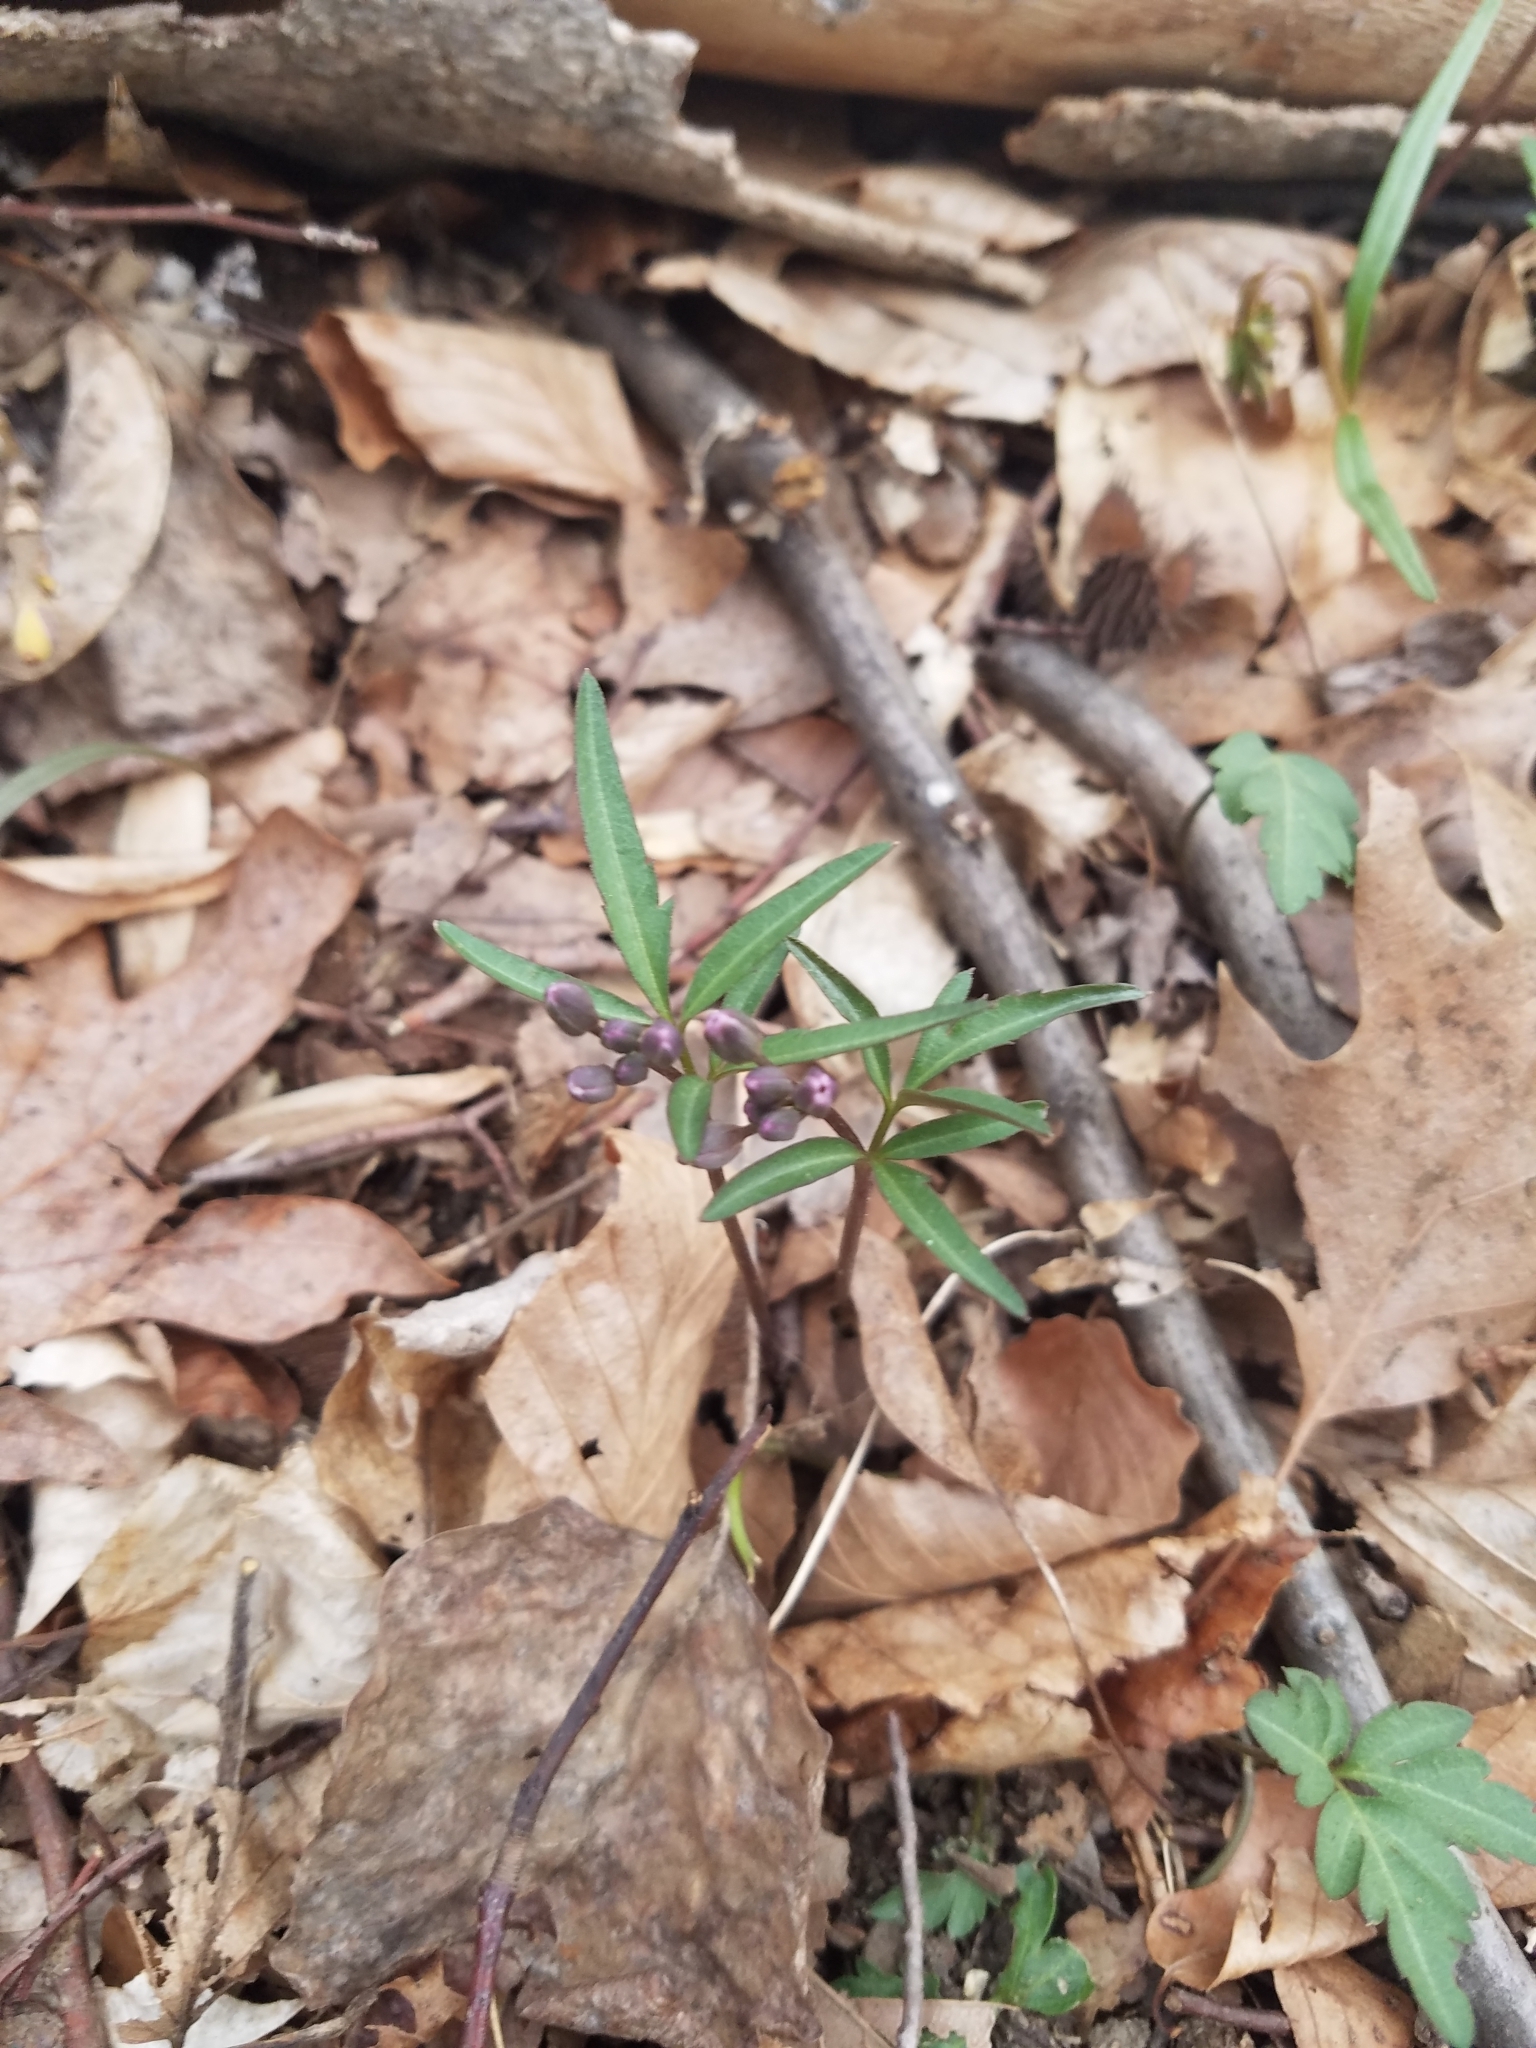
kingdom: Plantae
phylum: Tracheophyta
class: Magnoliopsida
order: Brassicales
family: Brassicaceae
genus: Cardamine
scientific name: Cardamine angustata
